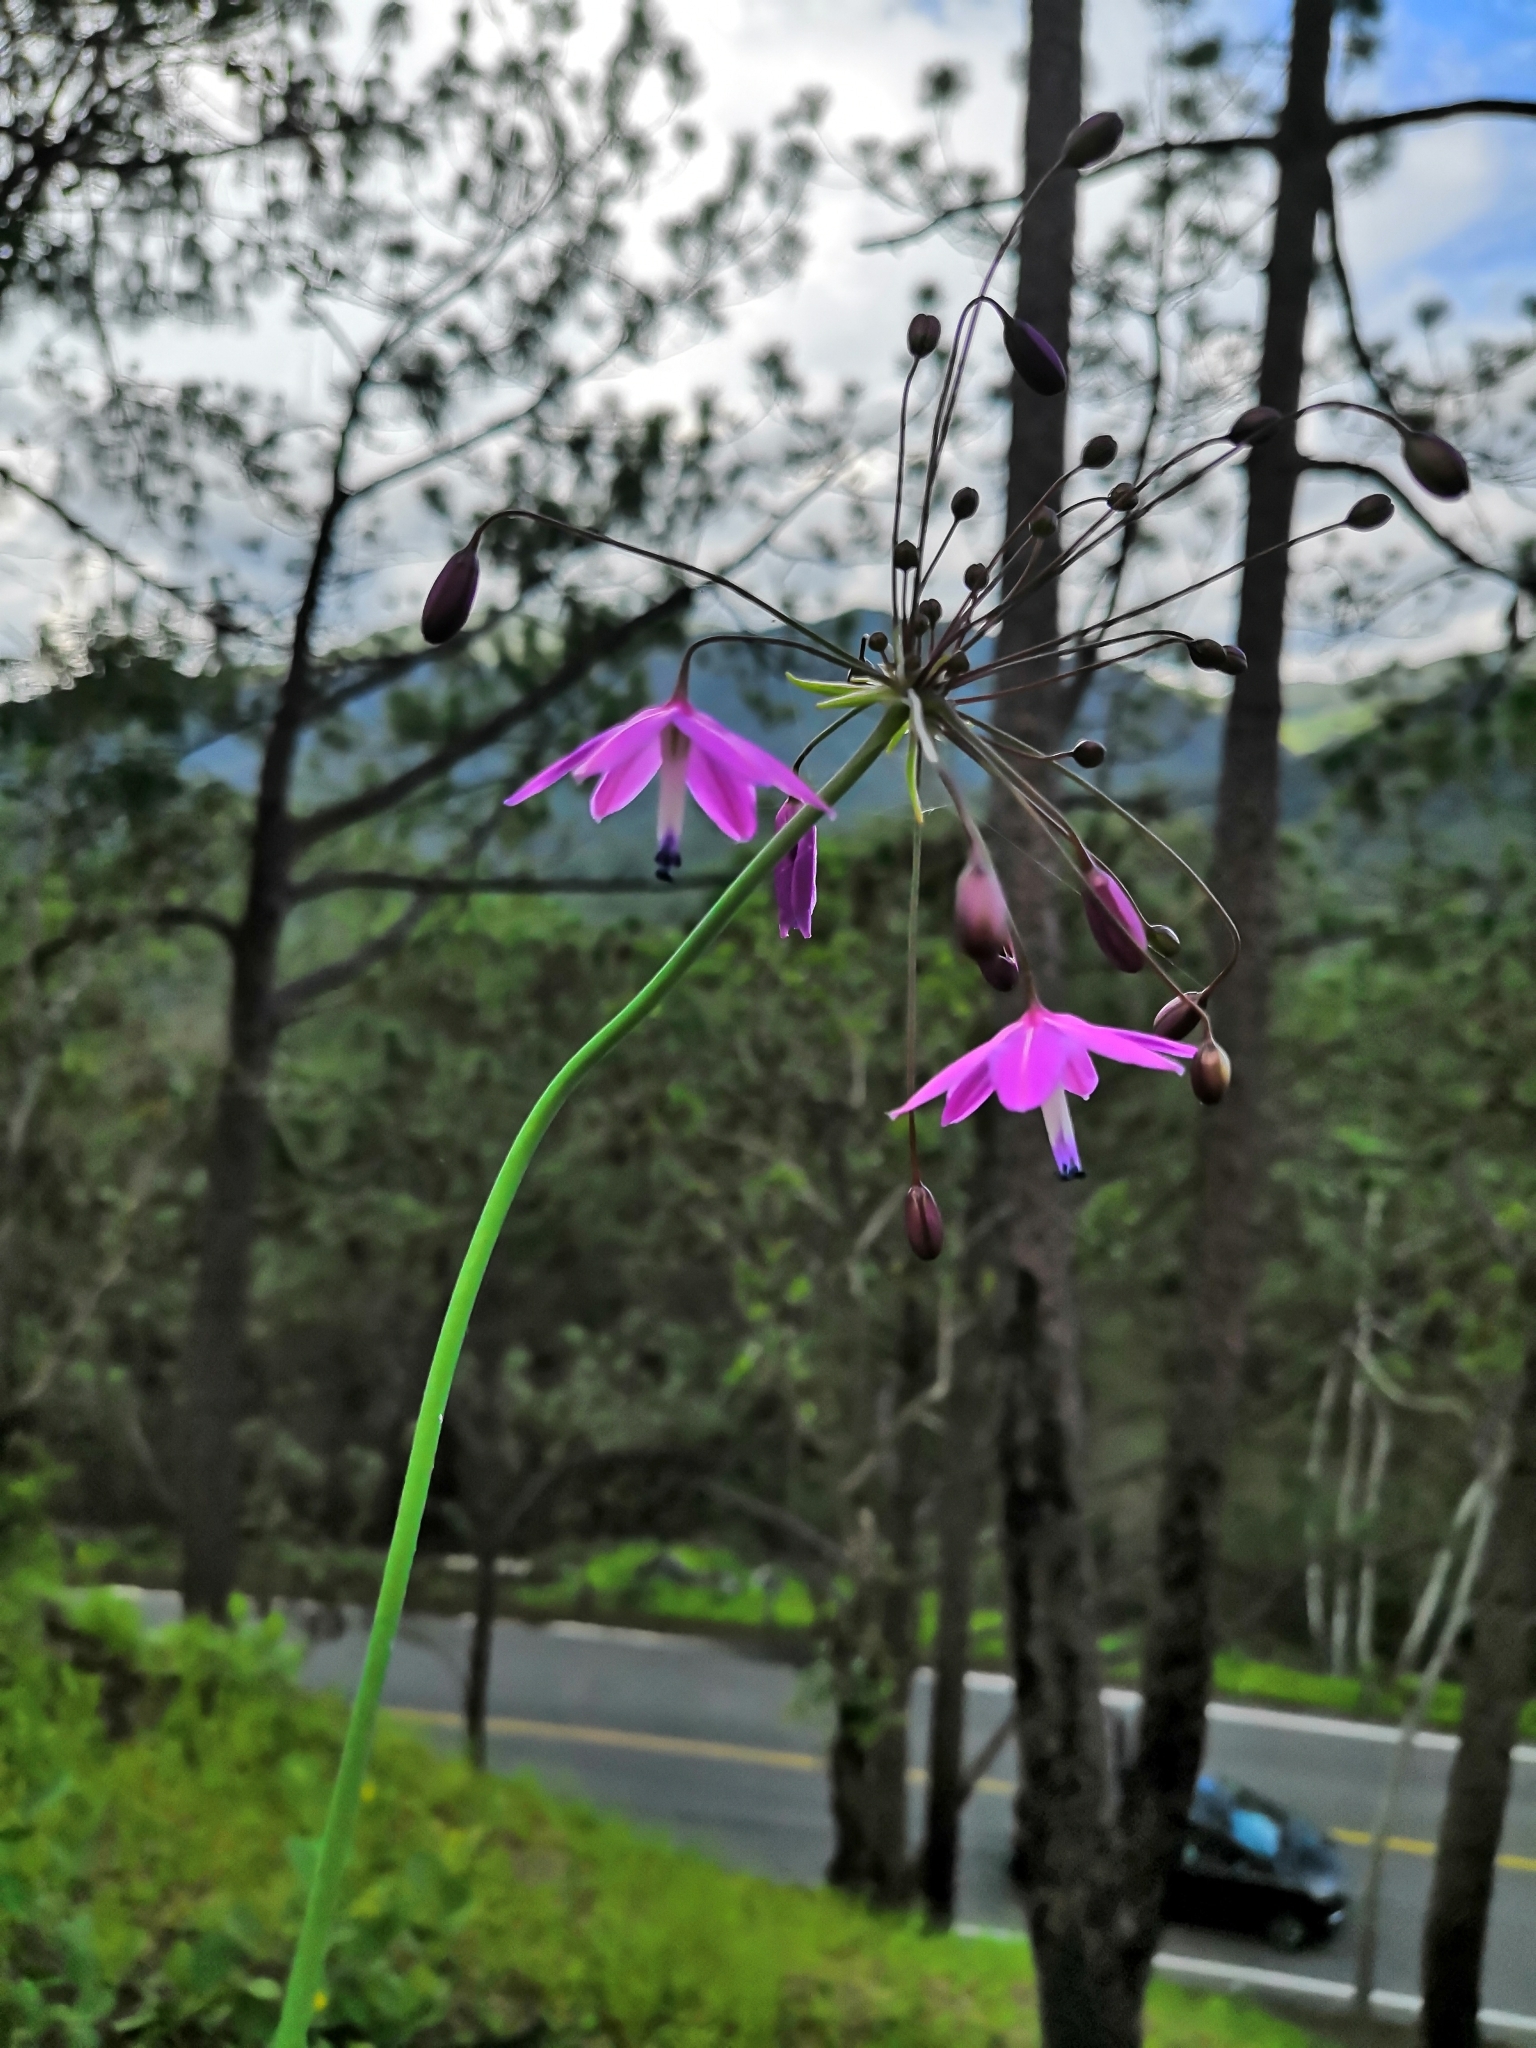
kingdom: Plantae
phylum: Tracheophyta
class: Liliopsida
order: Asparagales
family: Asparagaceae
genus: Bessera
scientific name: Bessera tuitensis
